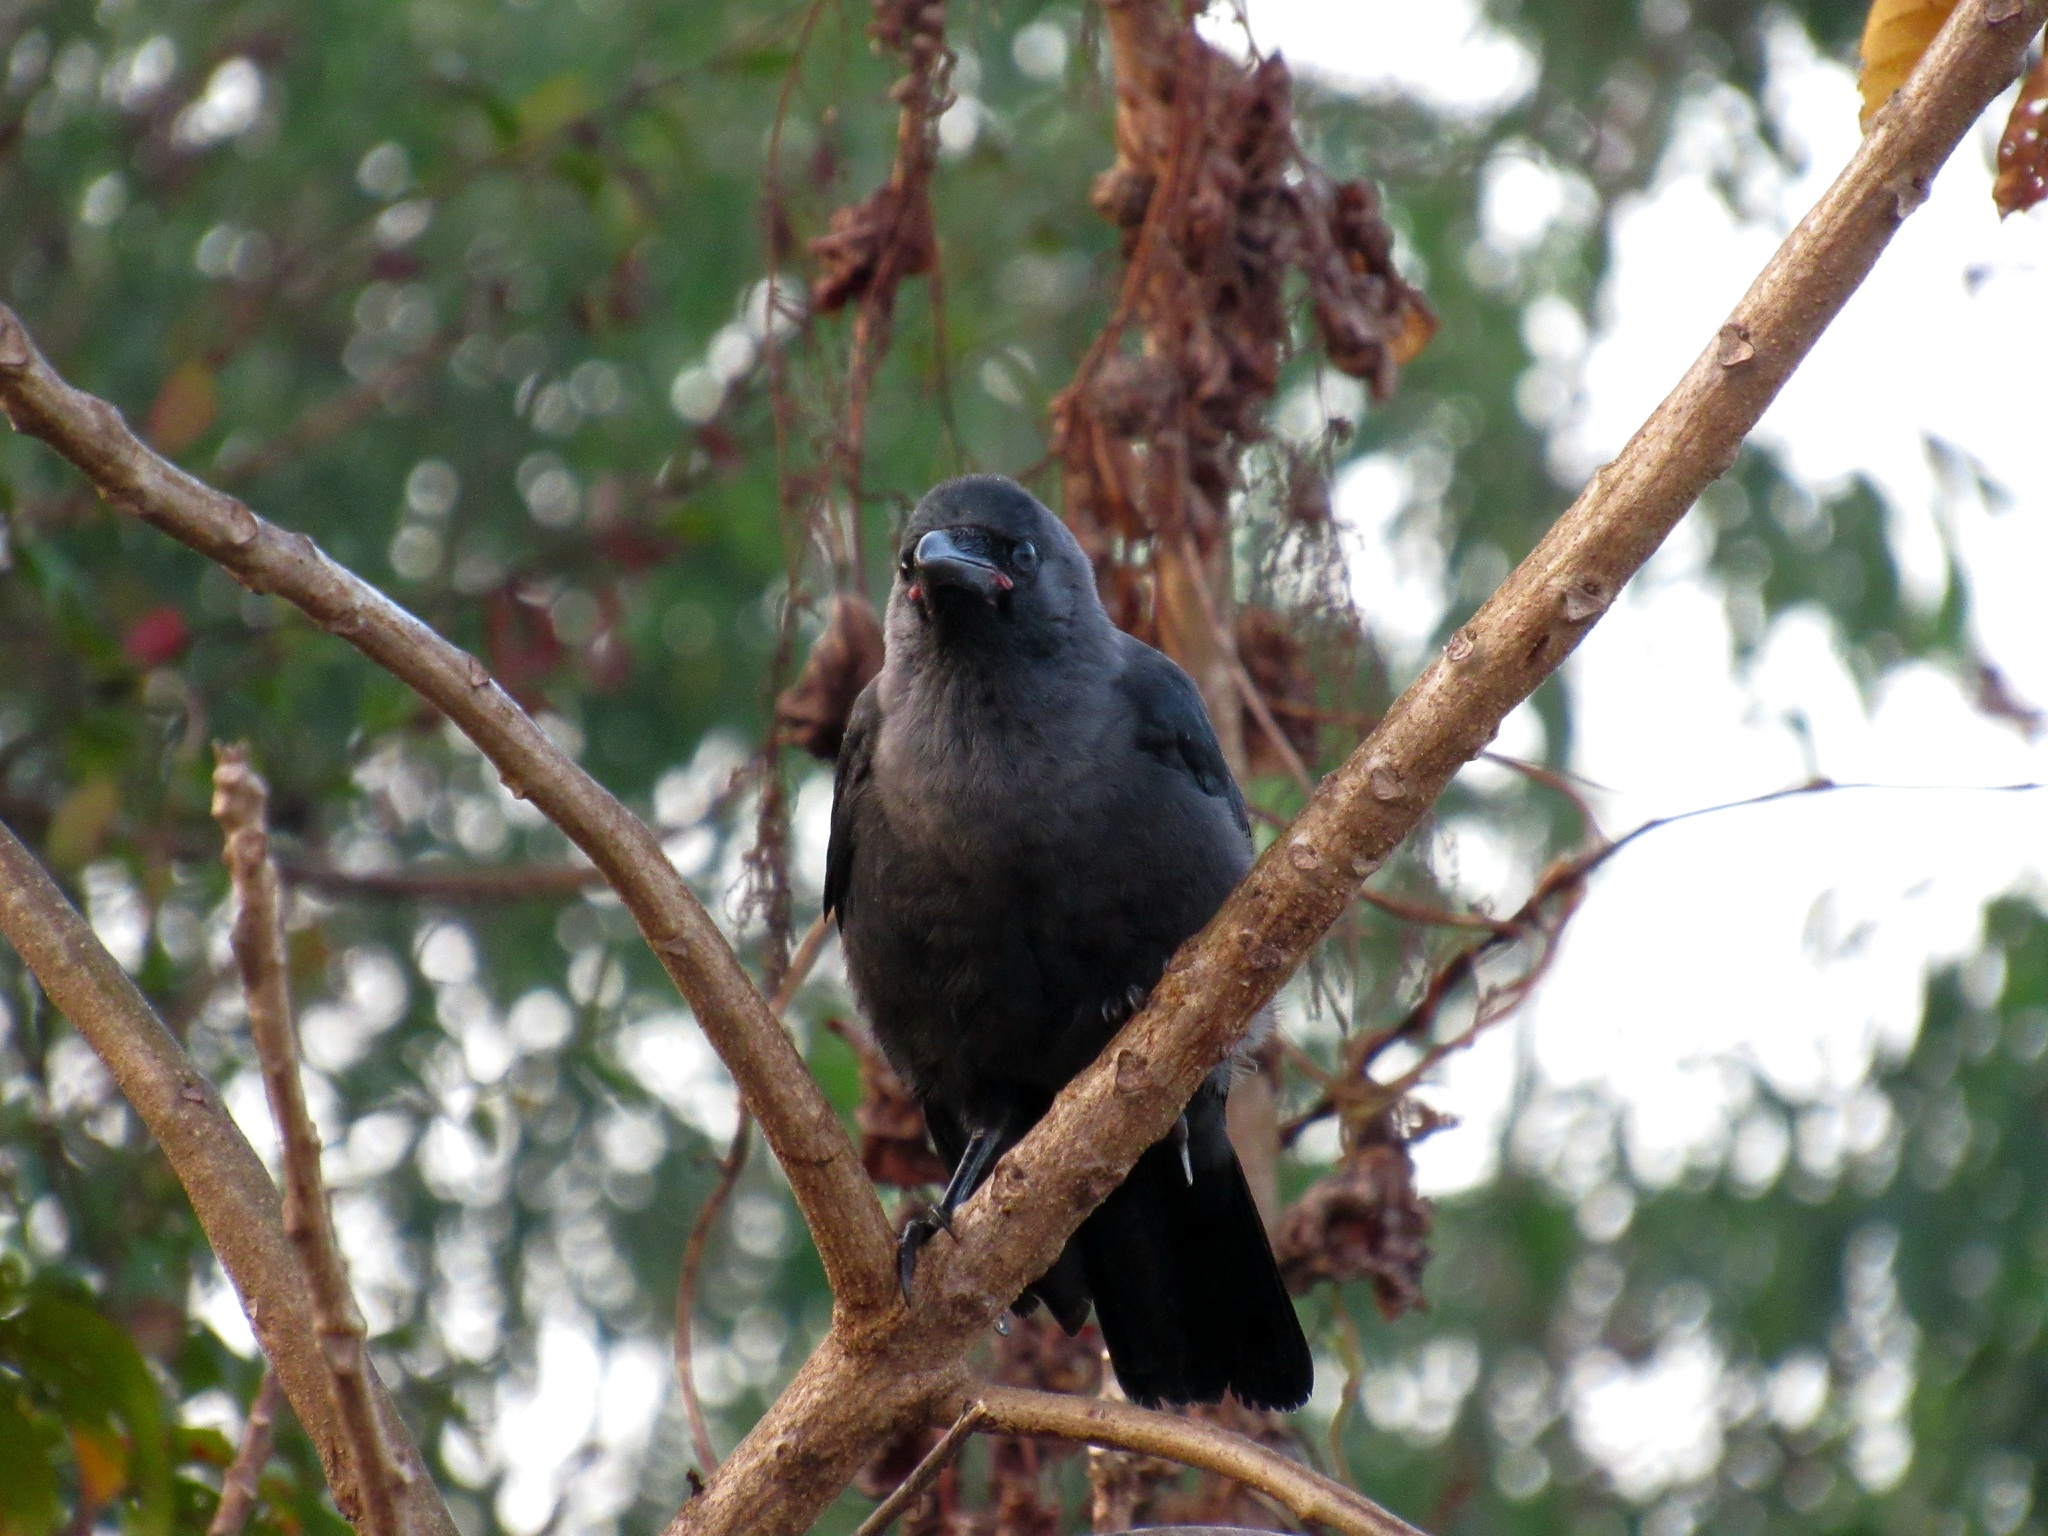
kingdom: Animalia
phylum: Chordata
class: Aves
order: Passeriformes
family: Corvidae
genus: Corvus
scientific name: Corvus splendens
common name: House crow
